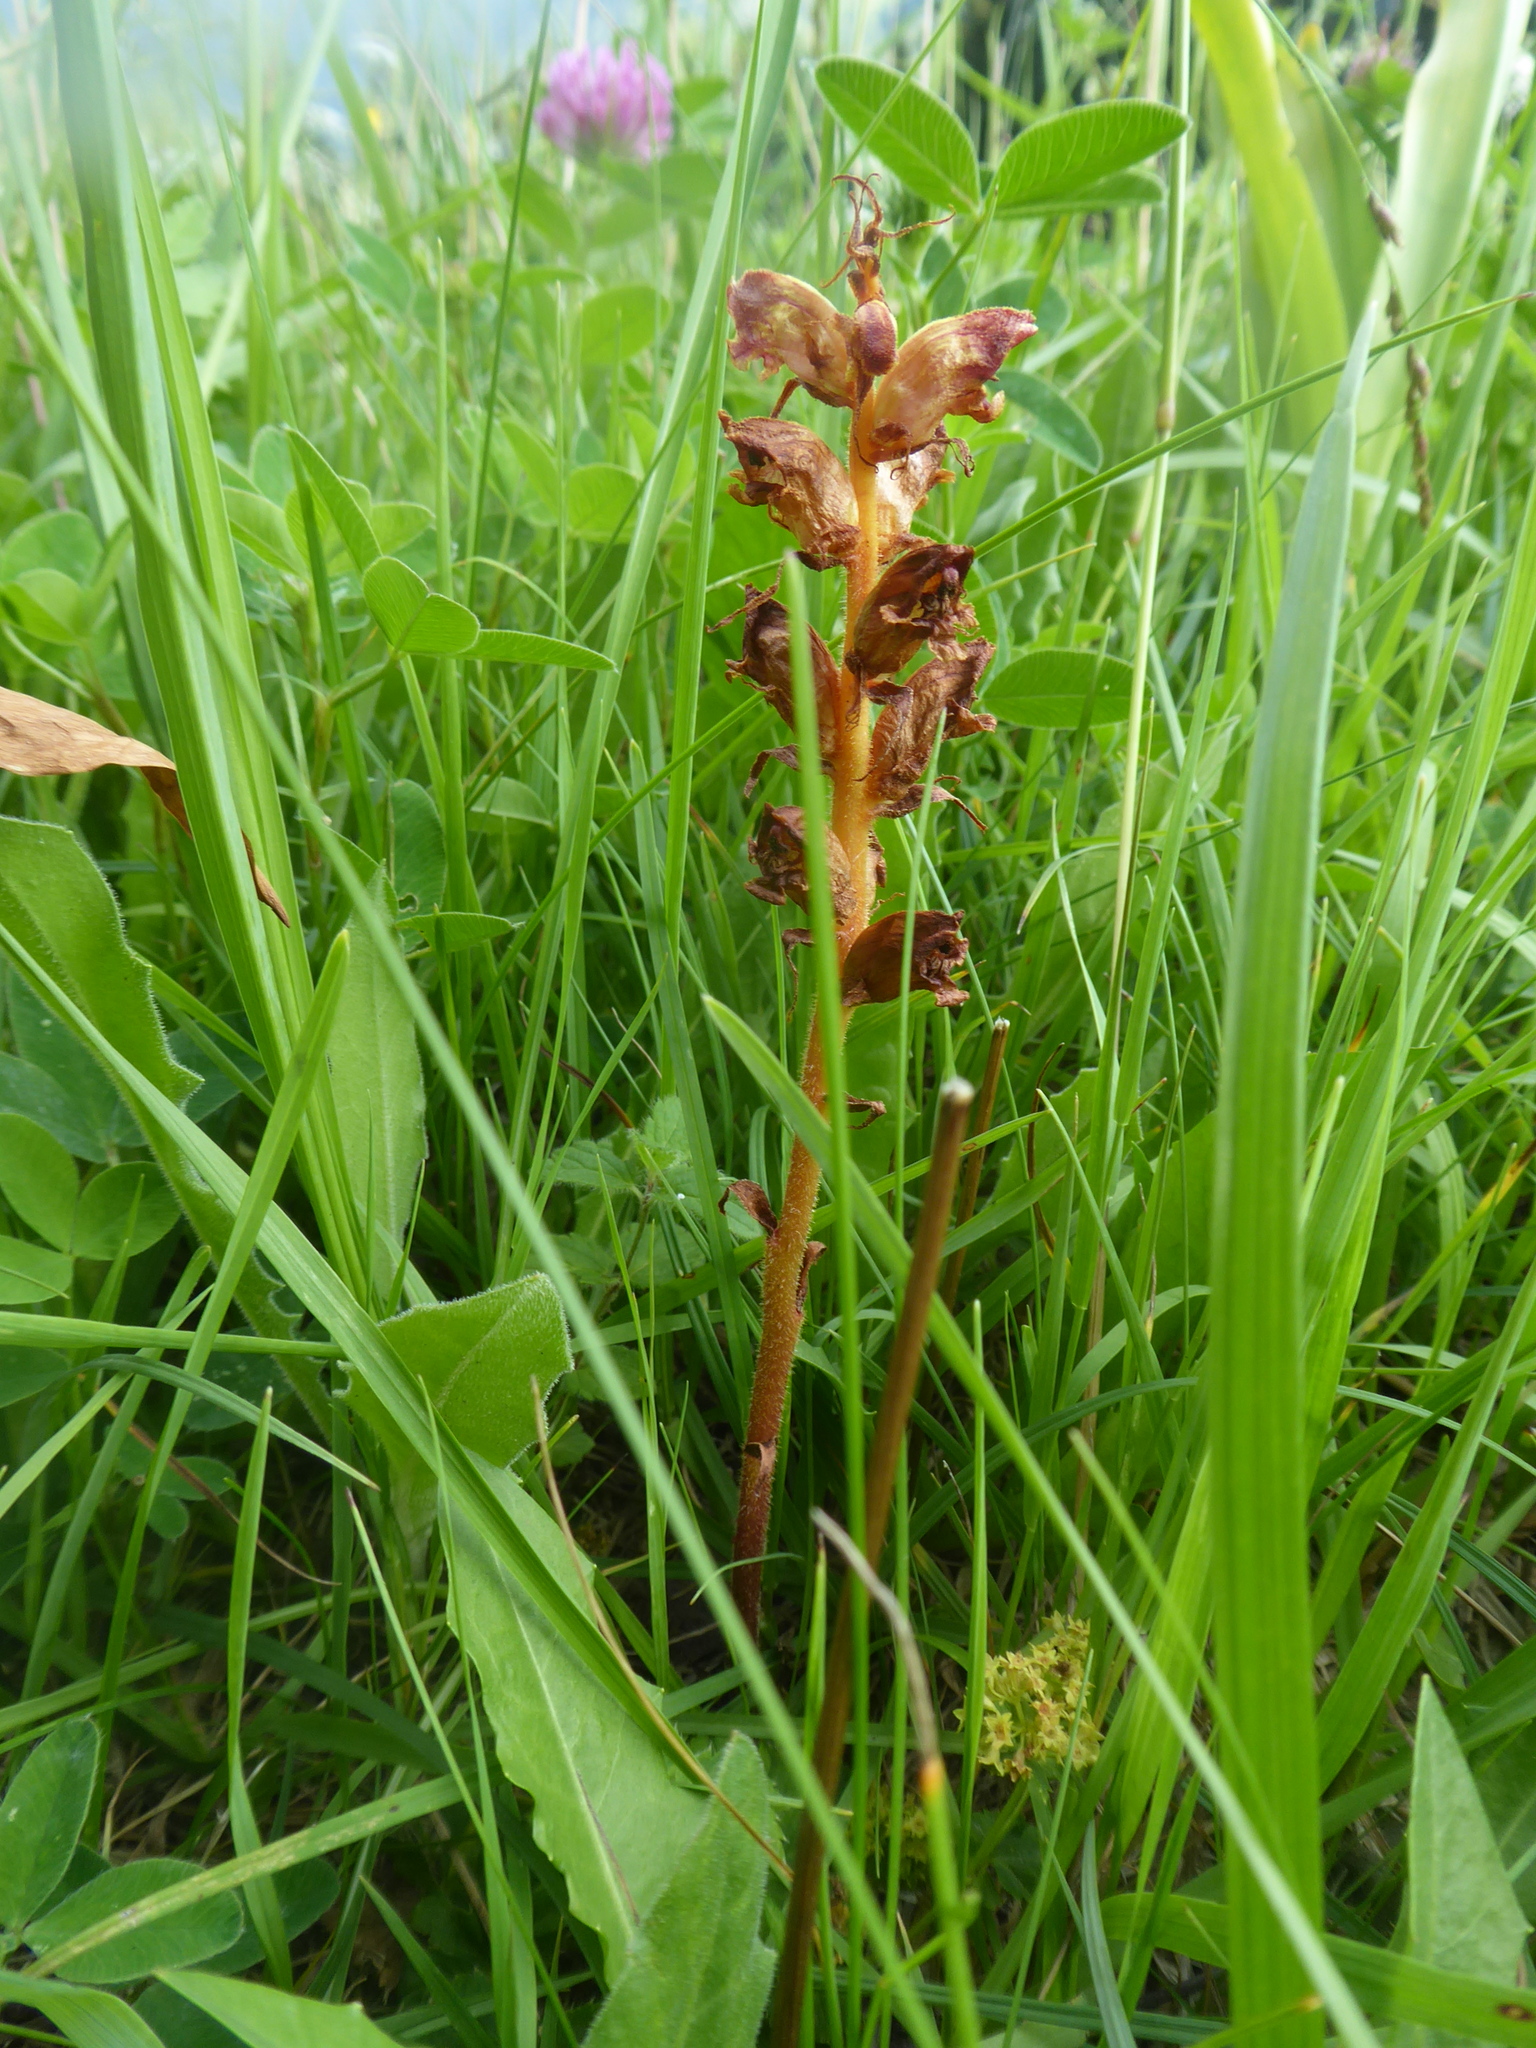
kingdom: Plantae
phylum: Tracheophyta
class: Magnoliopsida
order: Lamiales
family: Orobanchaceae
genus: Orobanche
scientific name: Orobanche gracilis
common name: Slender broomrape
